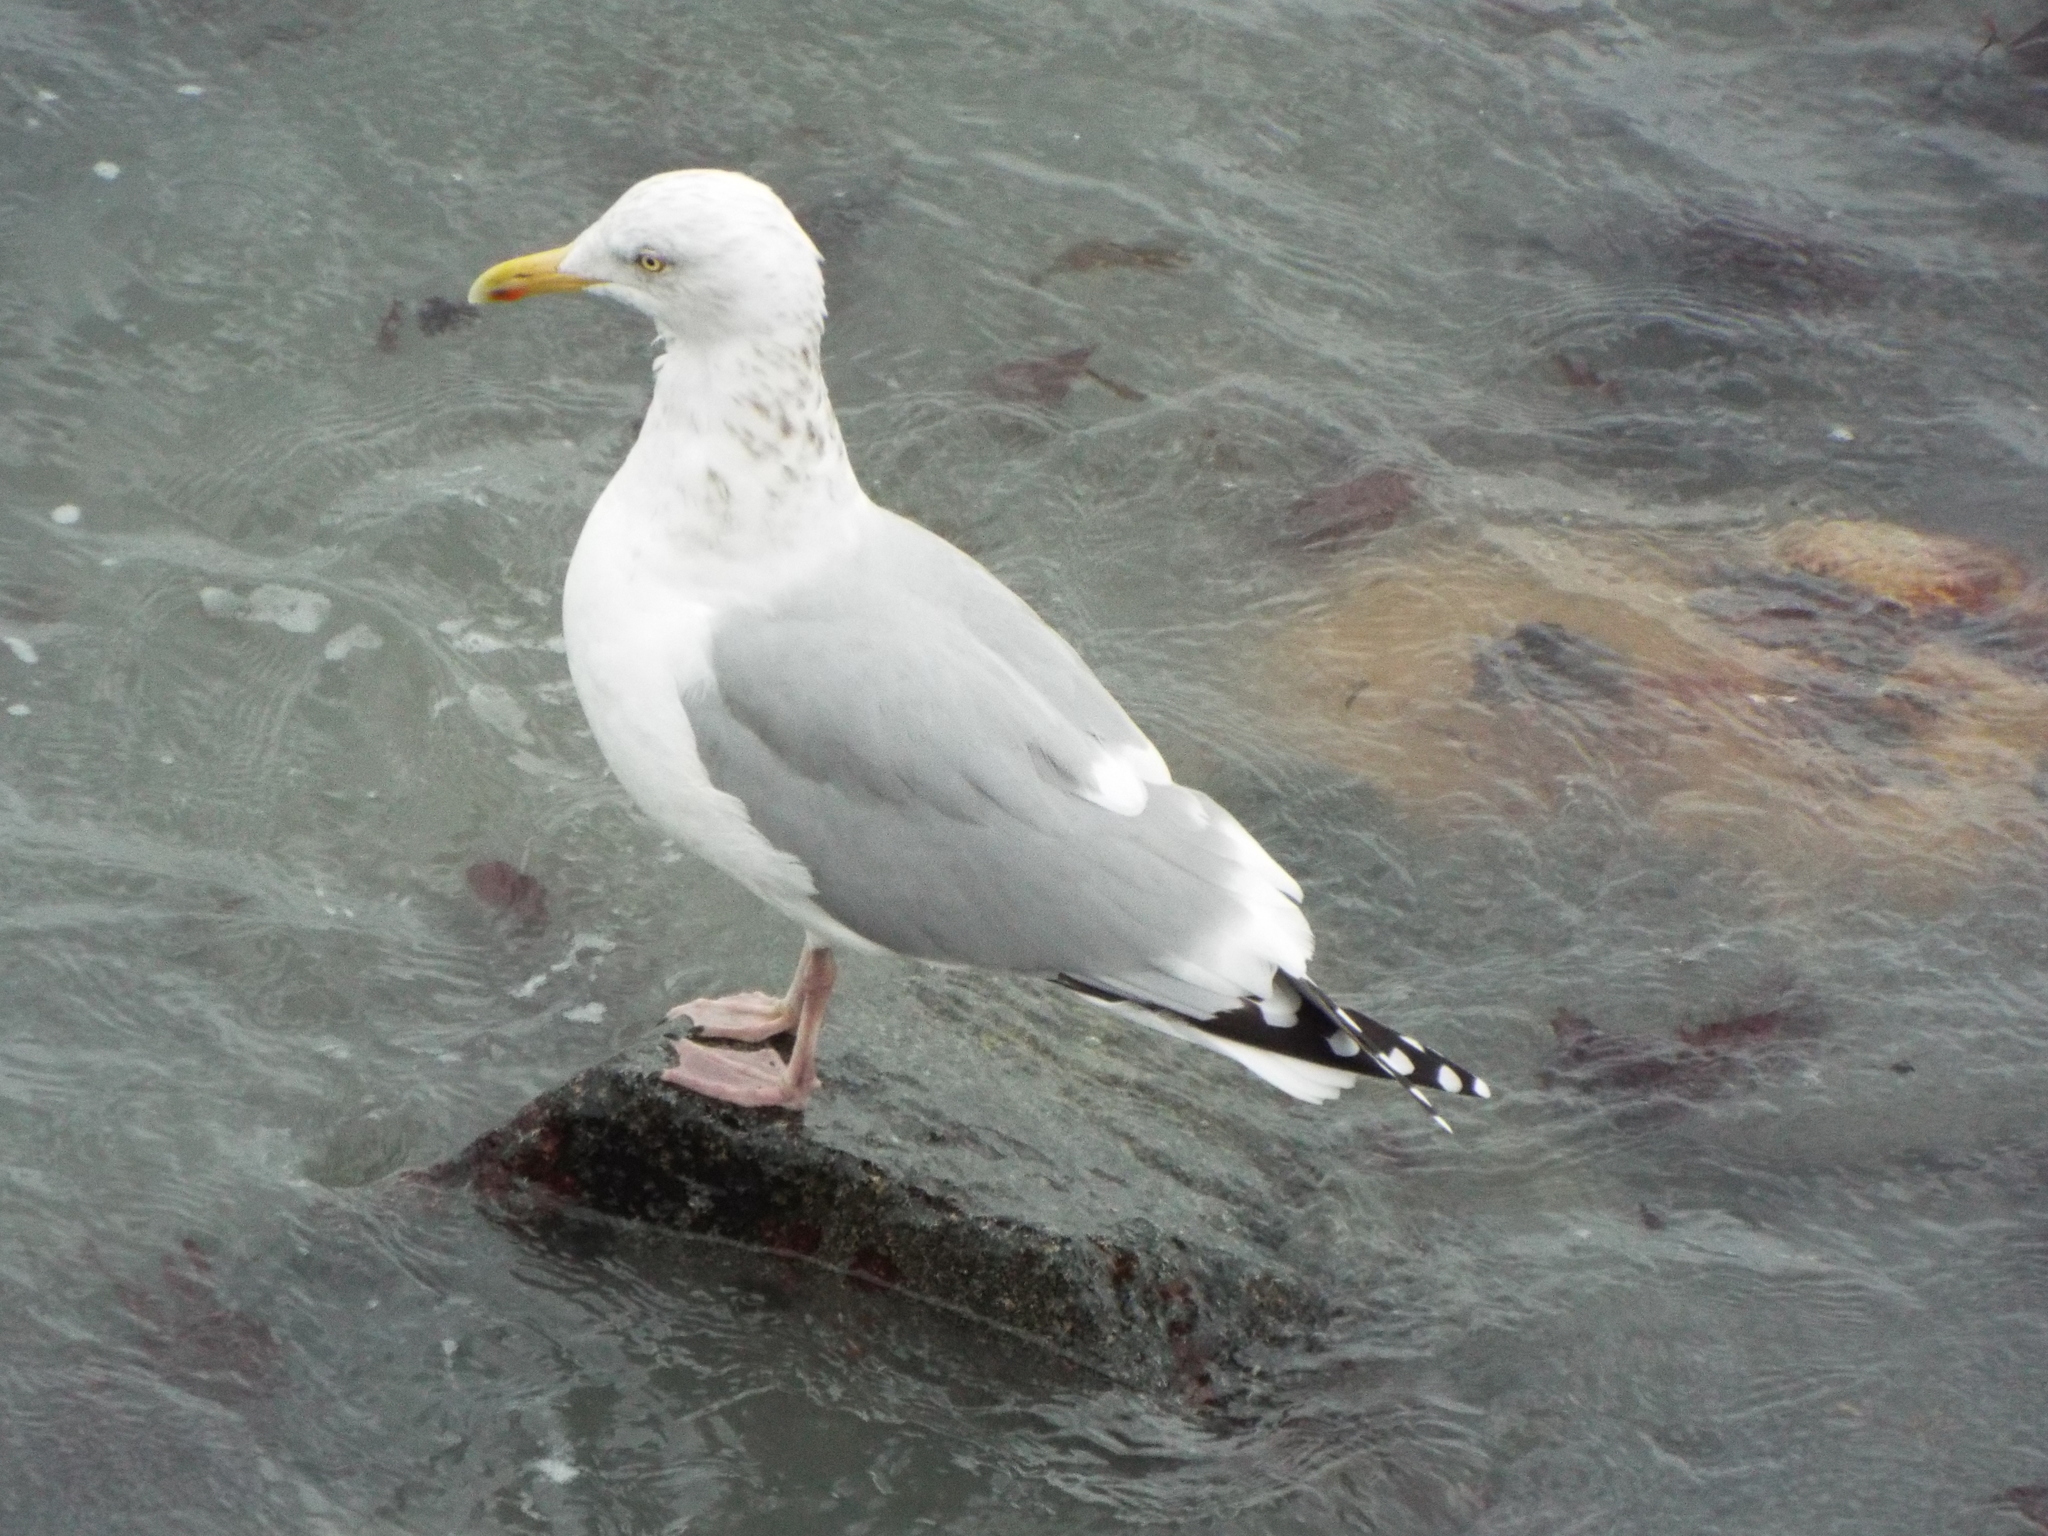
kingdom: Animalia
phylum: Chordata
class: Aves
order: Charadriiformes
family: Laridae
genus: Larus
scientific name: Larus argentatus
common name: Herring gull
